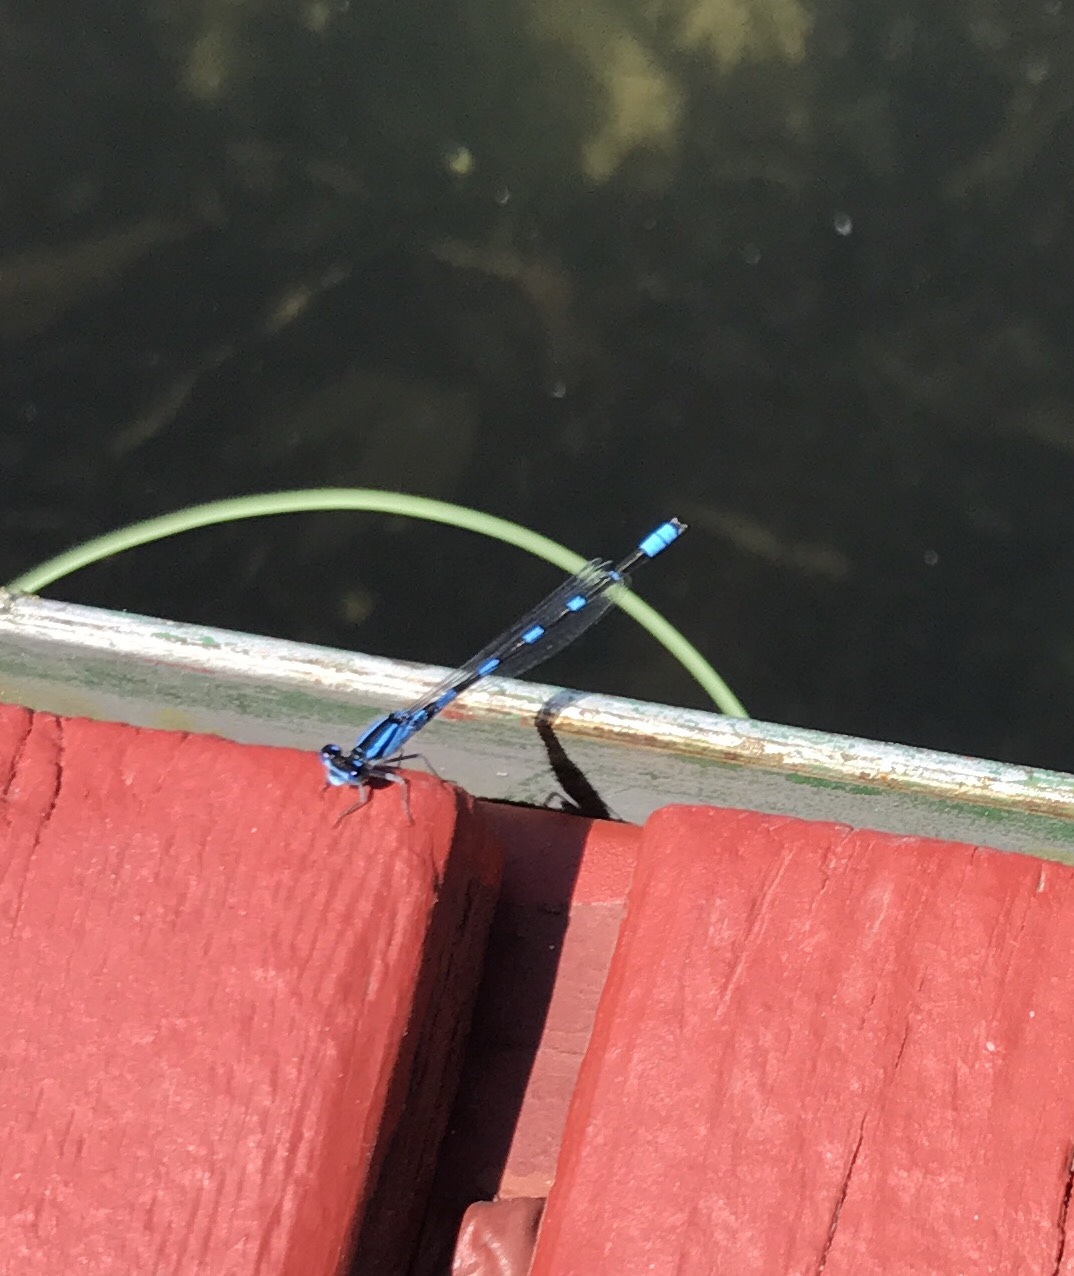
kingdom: Animalia
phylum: Arthropoda
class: Insecta
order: Odonata
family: Coenagrionidae
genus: Enallagma
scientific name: Enallagma carunculatum
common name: Tule bluet
